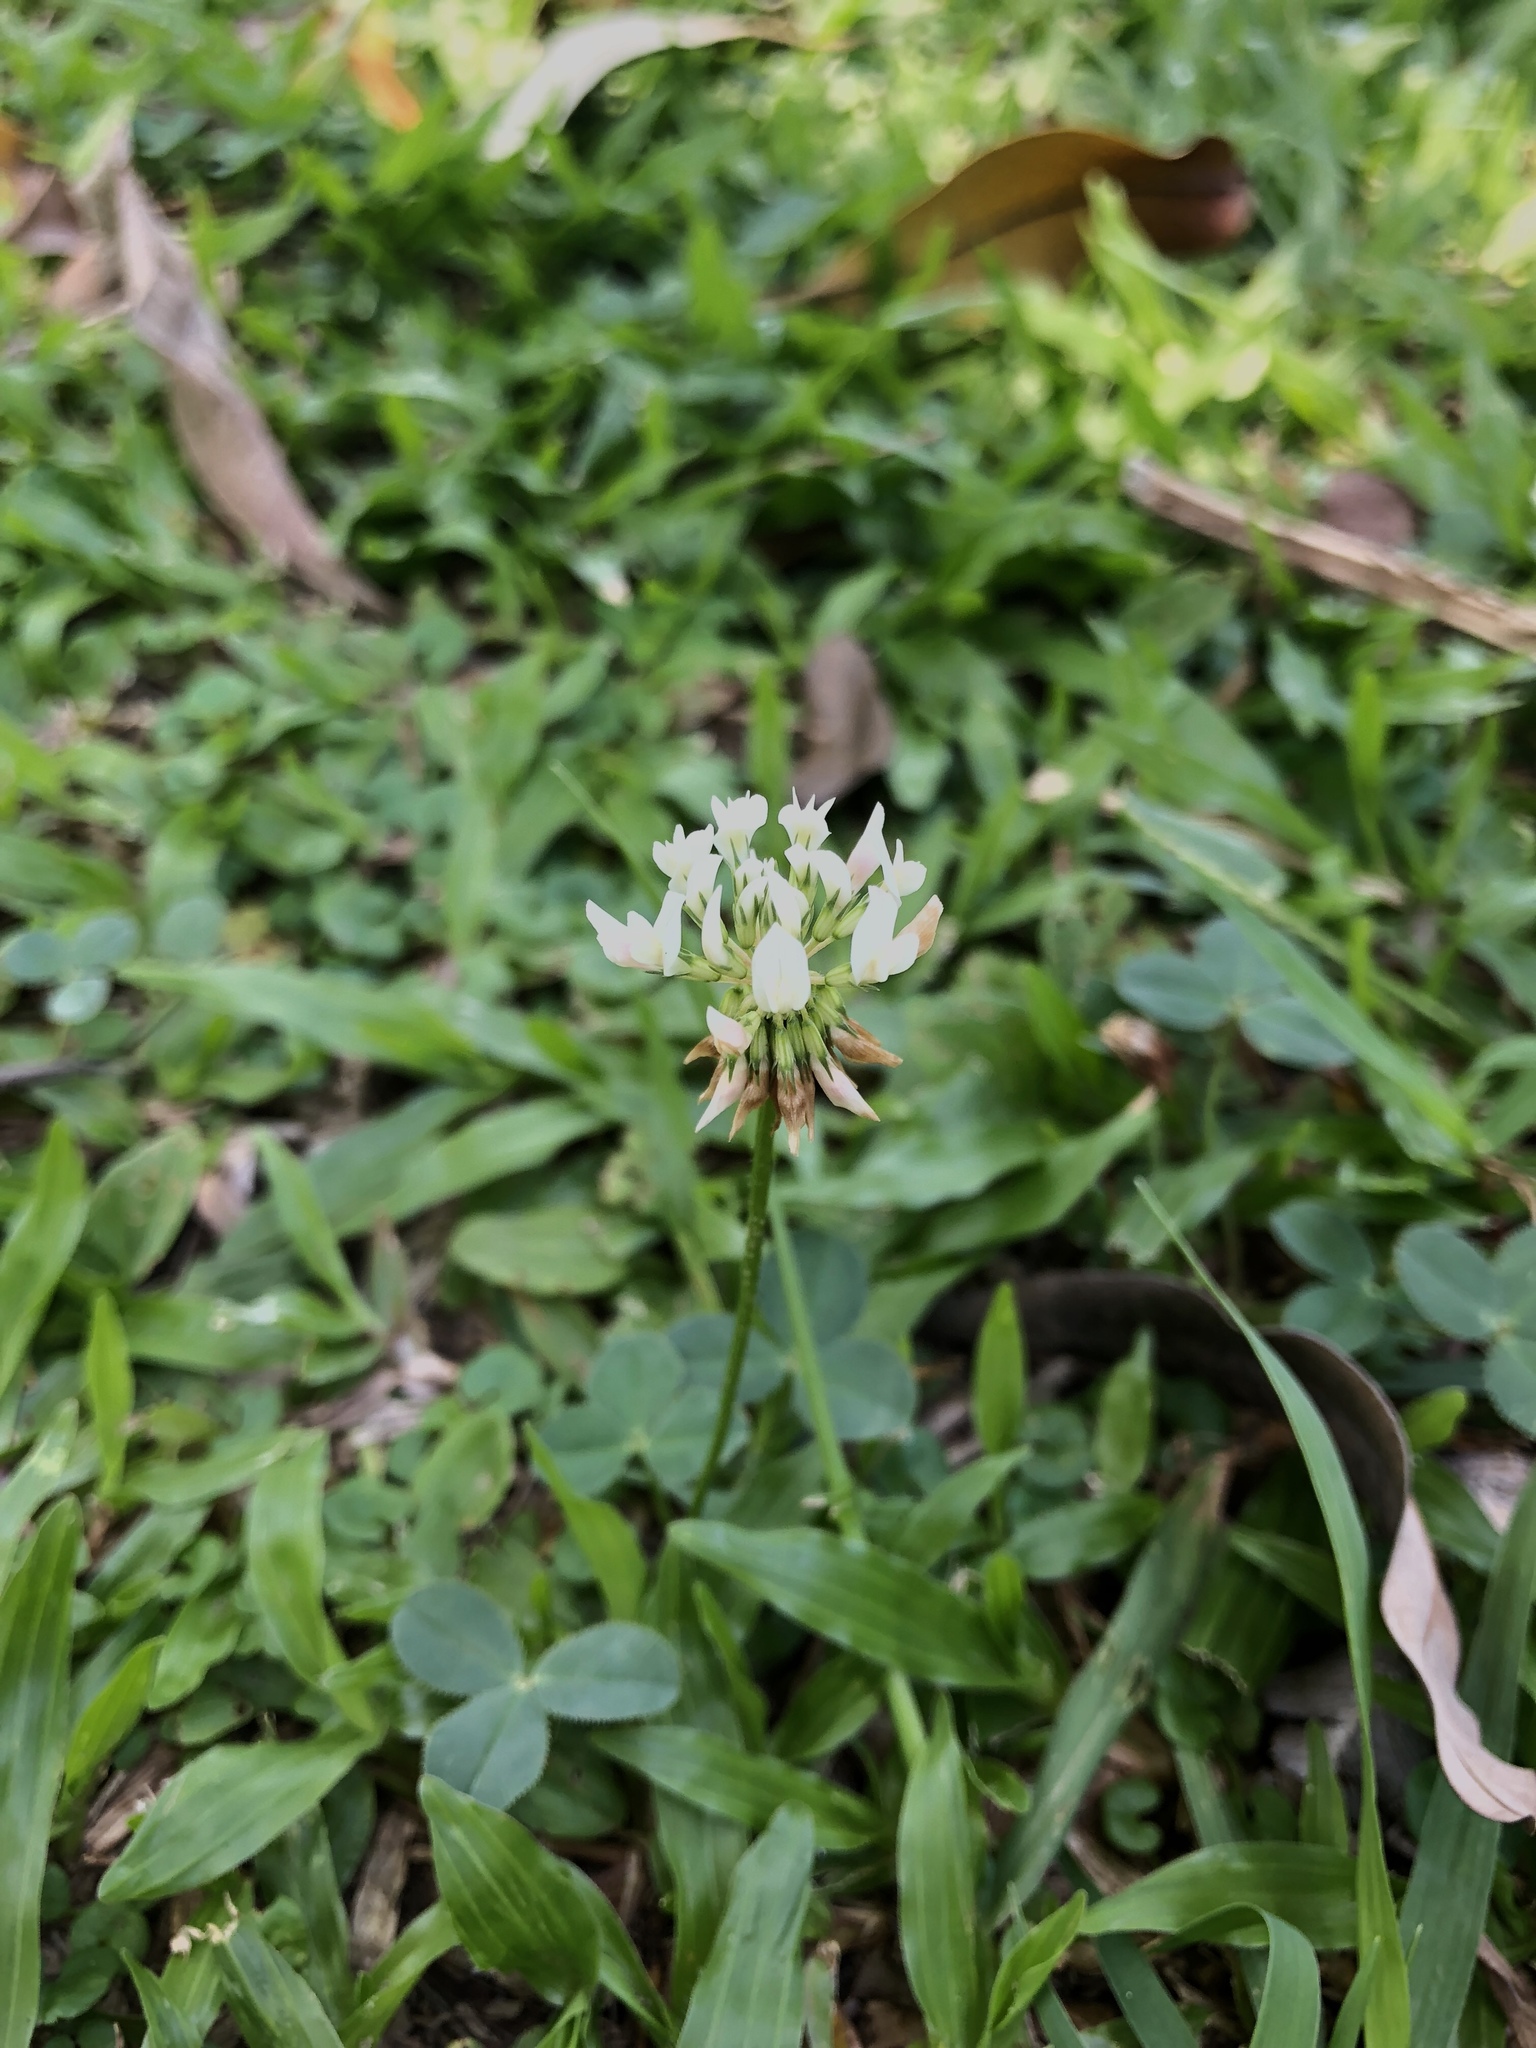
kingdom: Plantae
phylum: Tracheophyta
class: Magnoliopsida
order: Fabales
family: Fabaceae
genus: Trifolium
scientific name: Trifolium repens
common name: White clover
